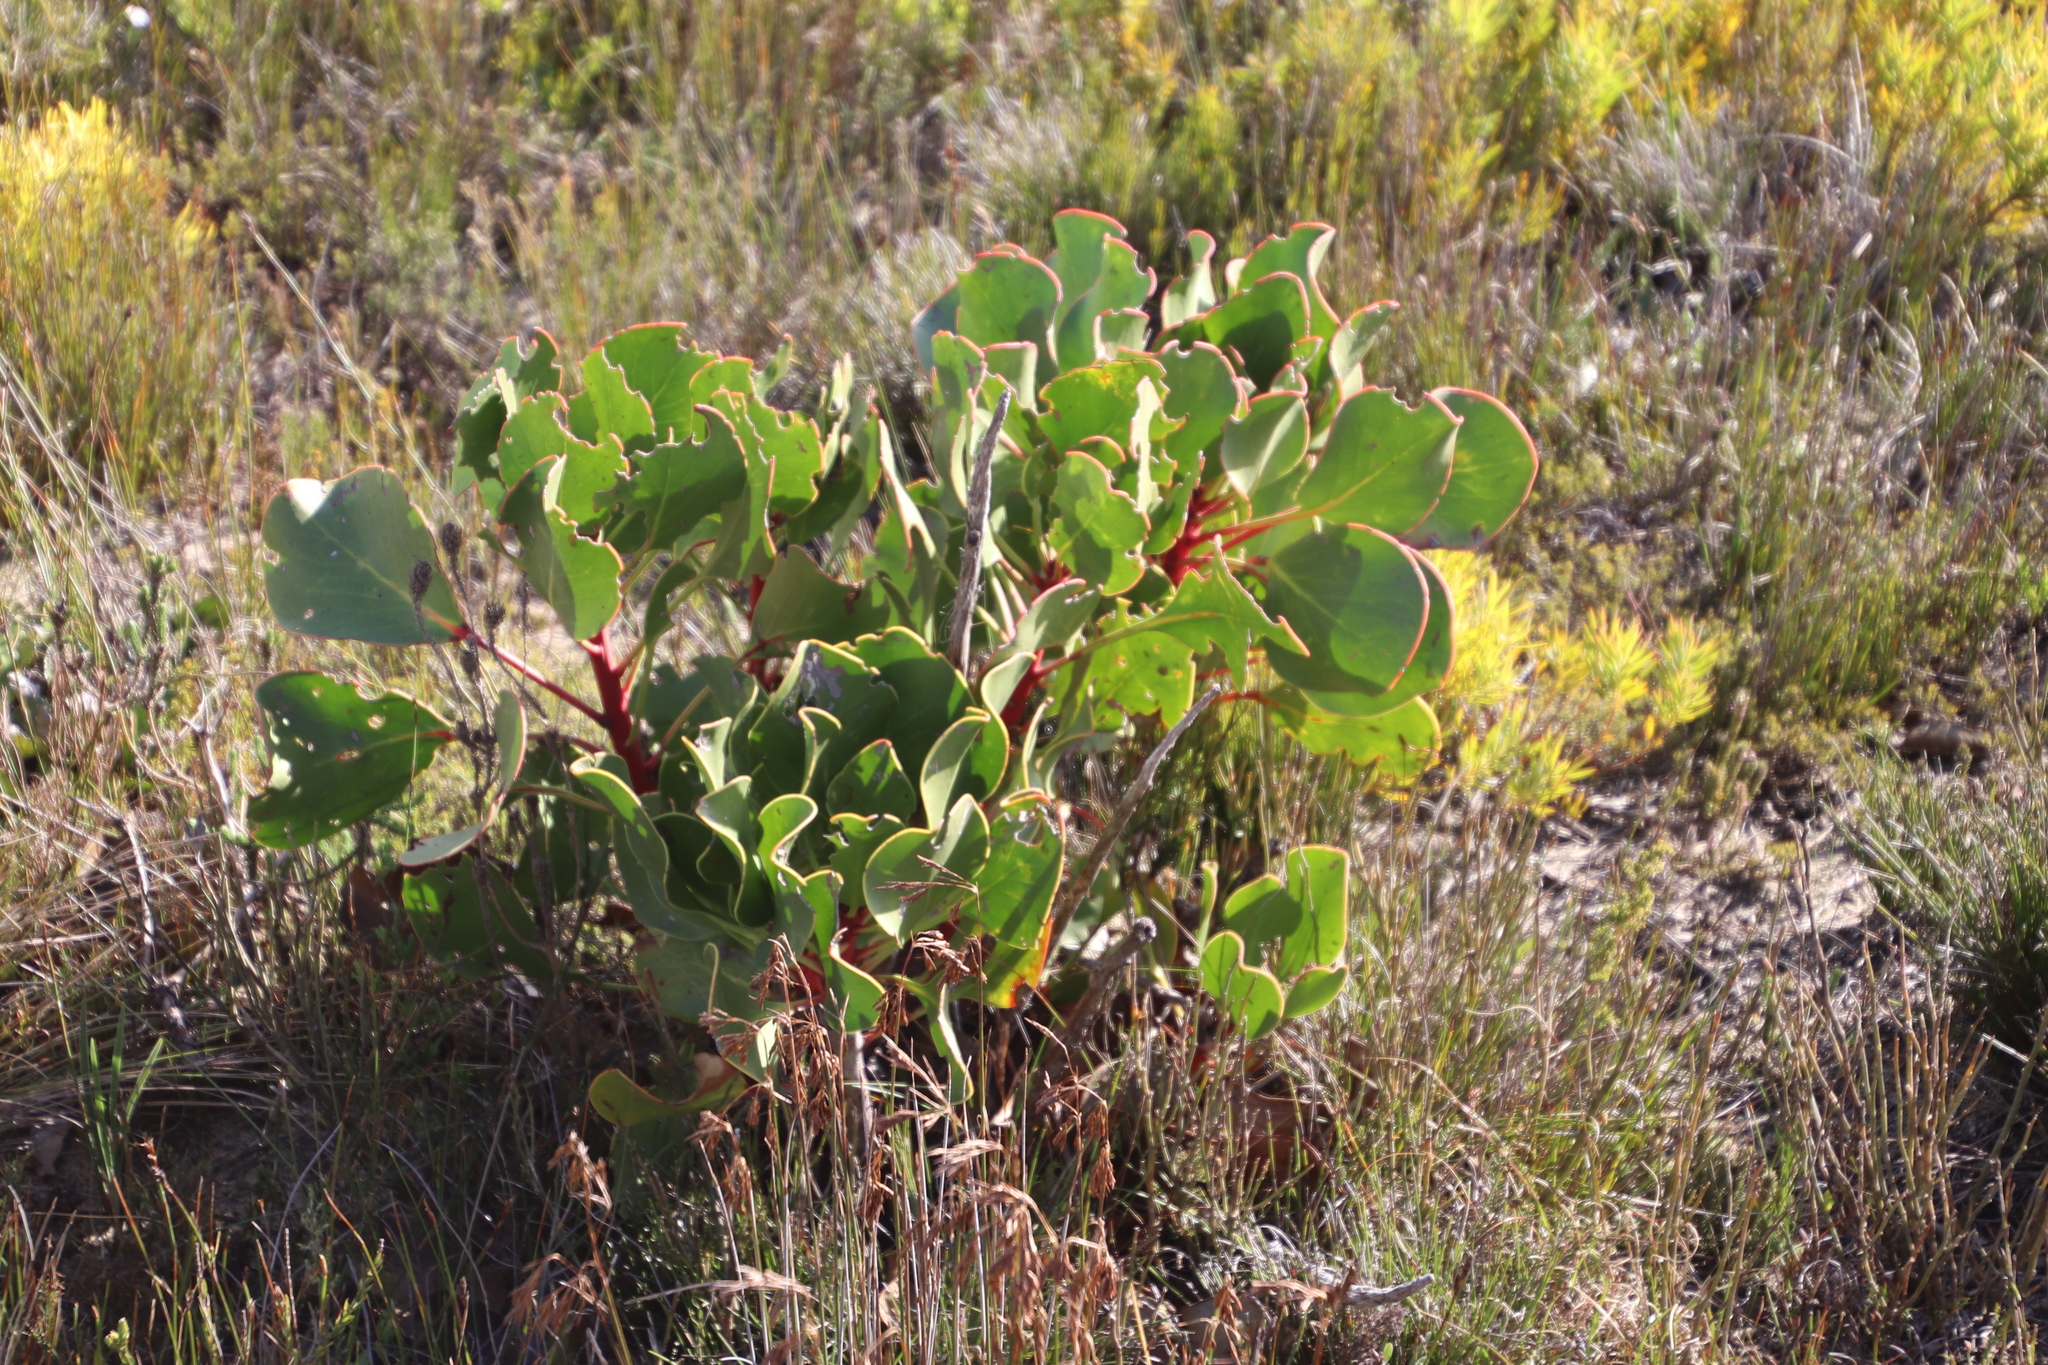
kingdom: Plantae
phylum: Tracheophyta
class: Magnoliopsida
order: Proteales
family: Proteaceae
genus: Protea
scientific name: Protea cynaroides
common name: King protea
